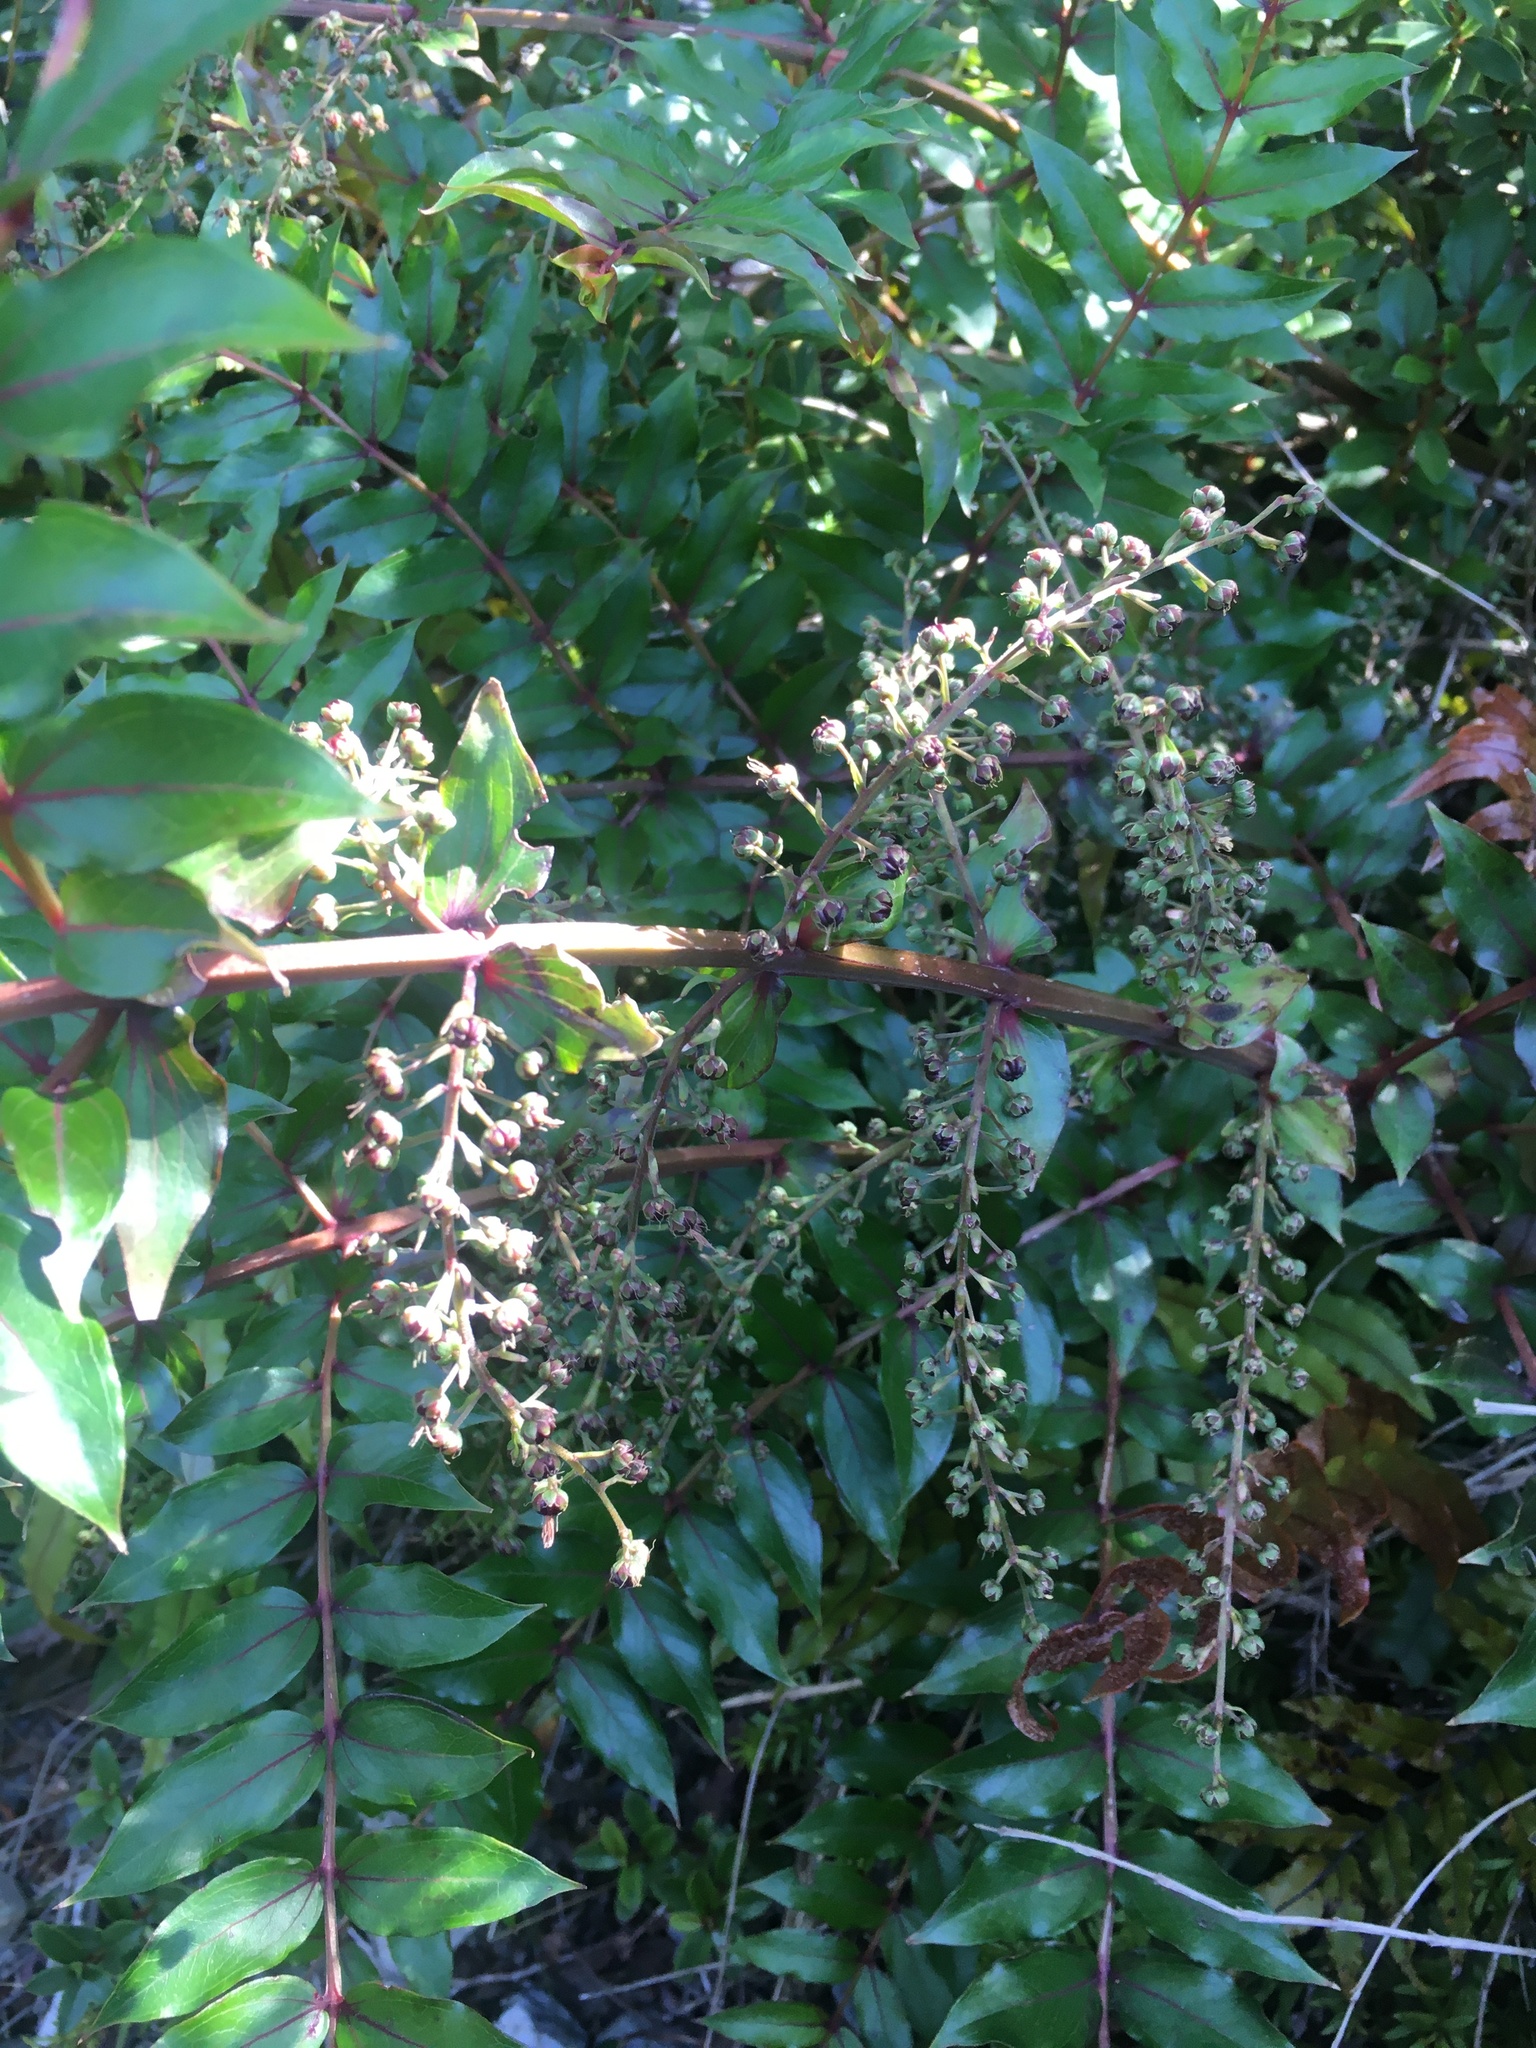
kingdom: Plantae
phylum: Tracheophyta
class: Magnoliopsida
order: Cucurbitales
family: Coriariaceae
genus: Coriaria
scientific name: Coriaria plumosa
